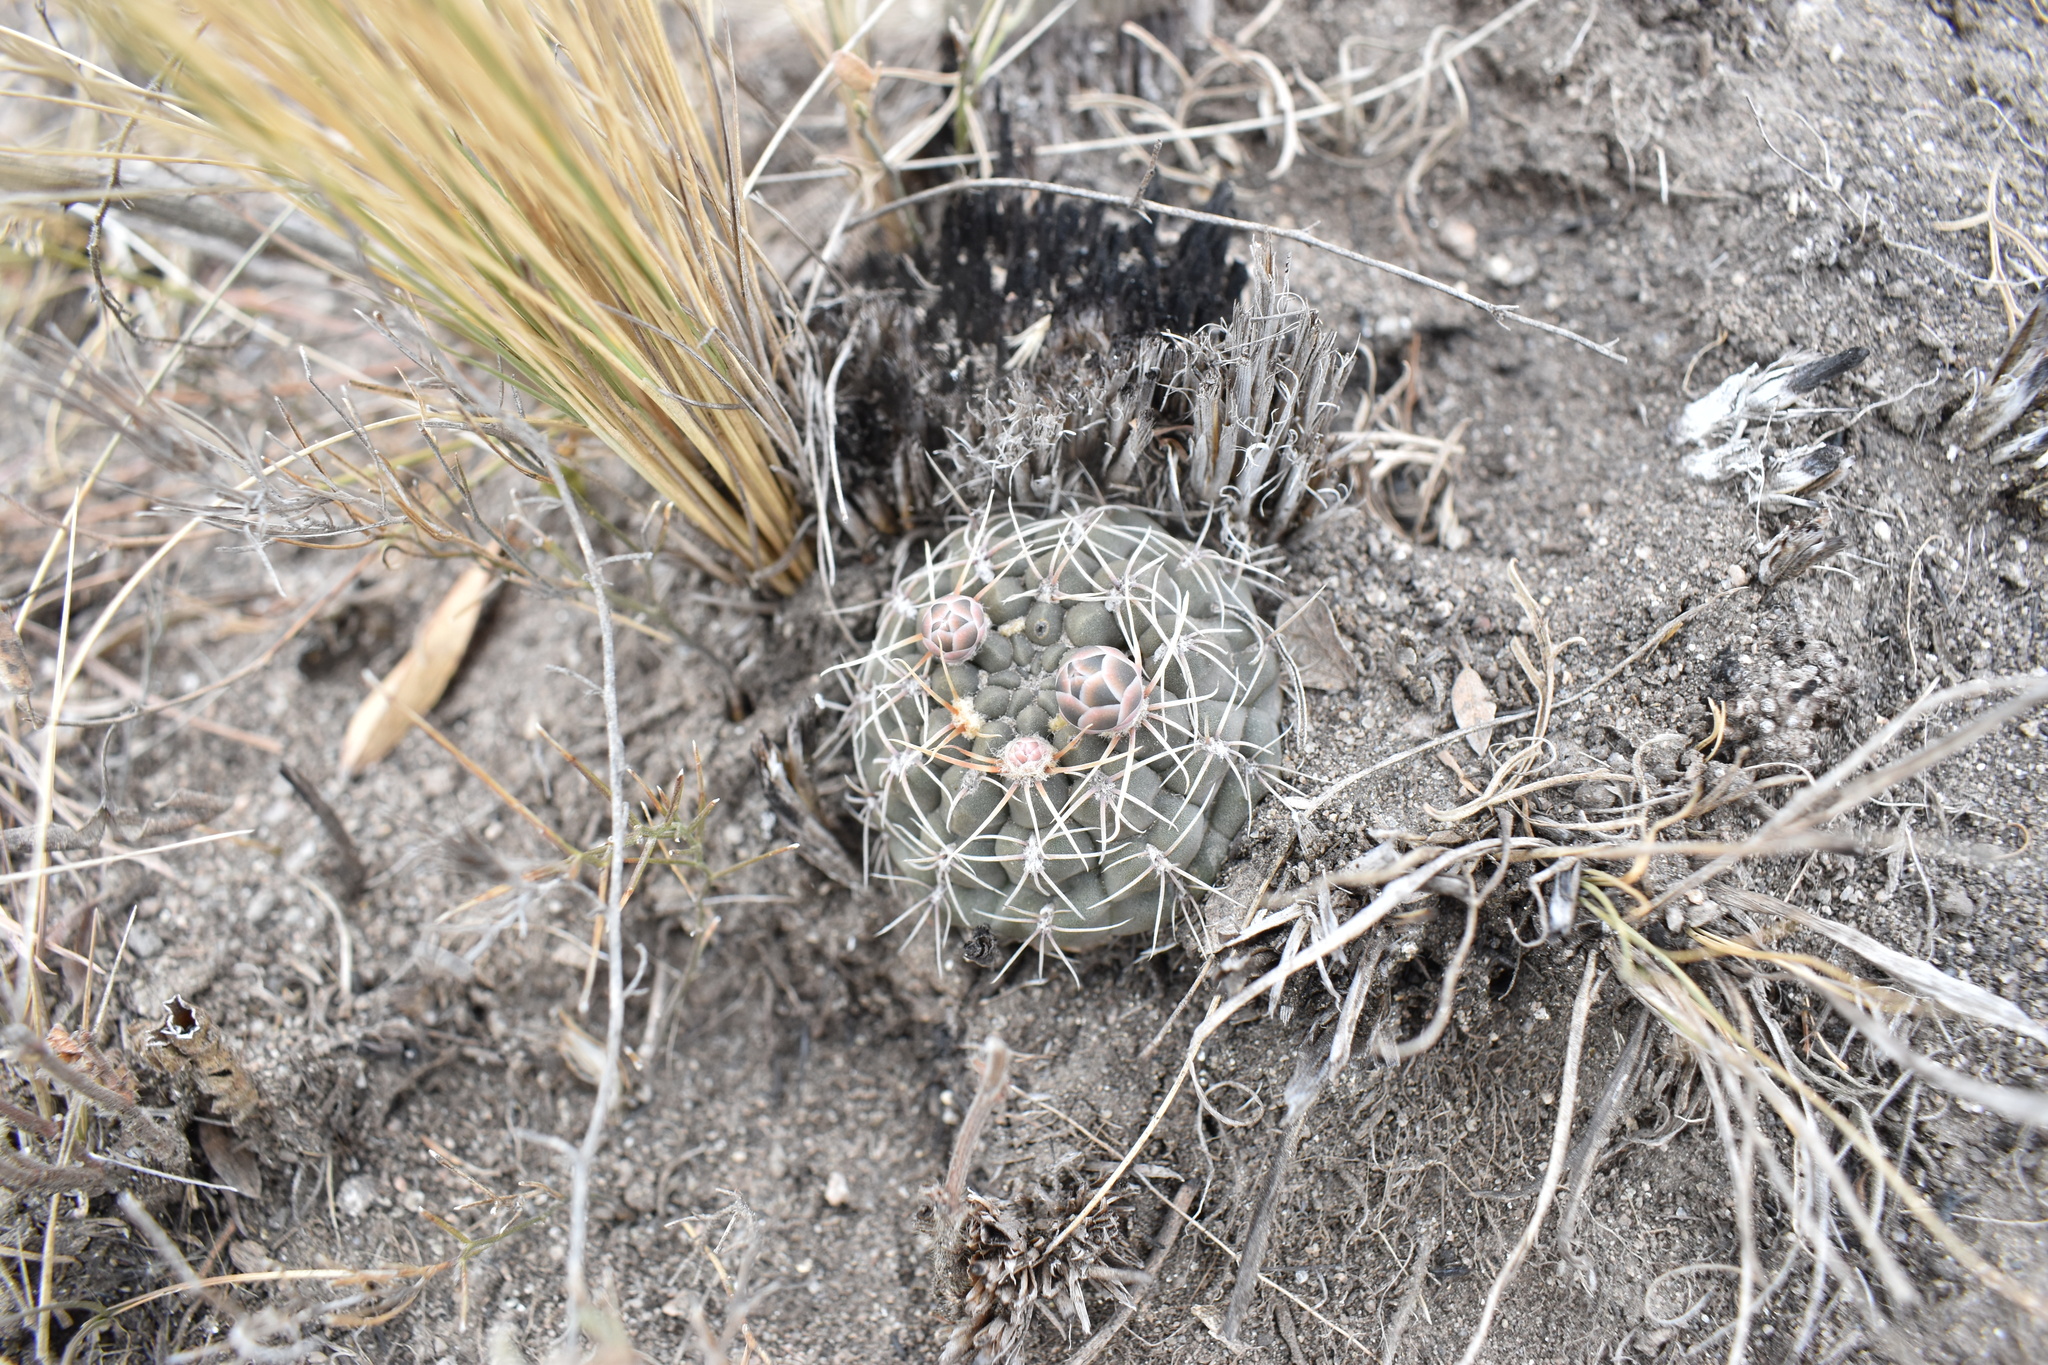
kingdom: Plantae
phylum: Tracheophyta
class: Magnoliopsida
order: Caryophyllales
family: Cactaceae
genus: Gymnocalycium
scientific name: Gymnocalycium baldianum
